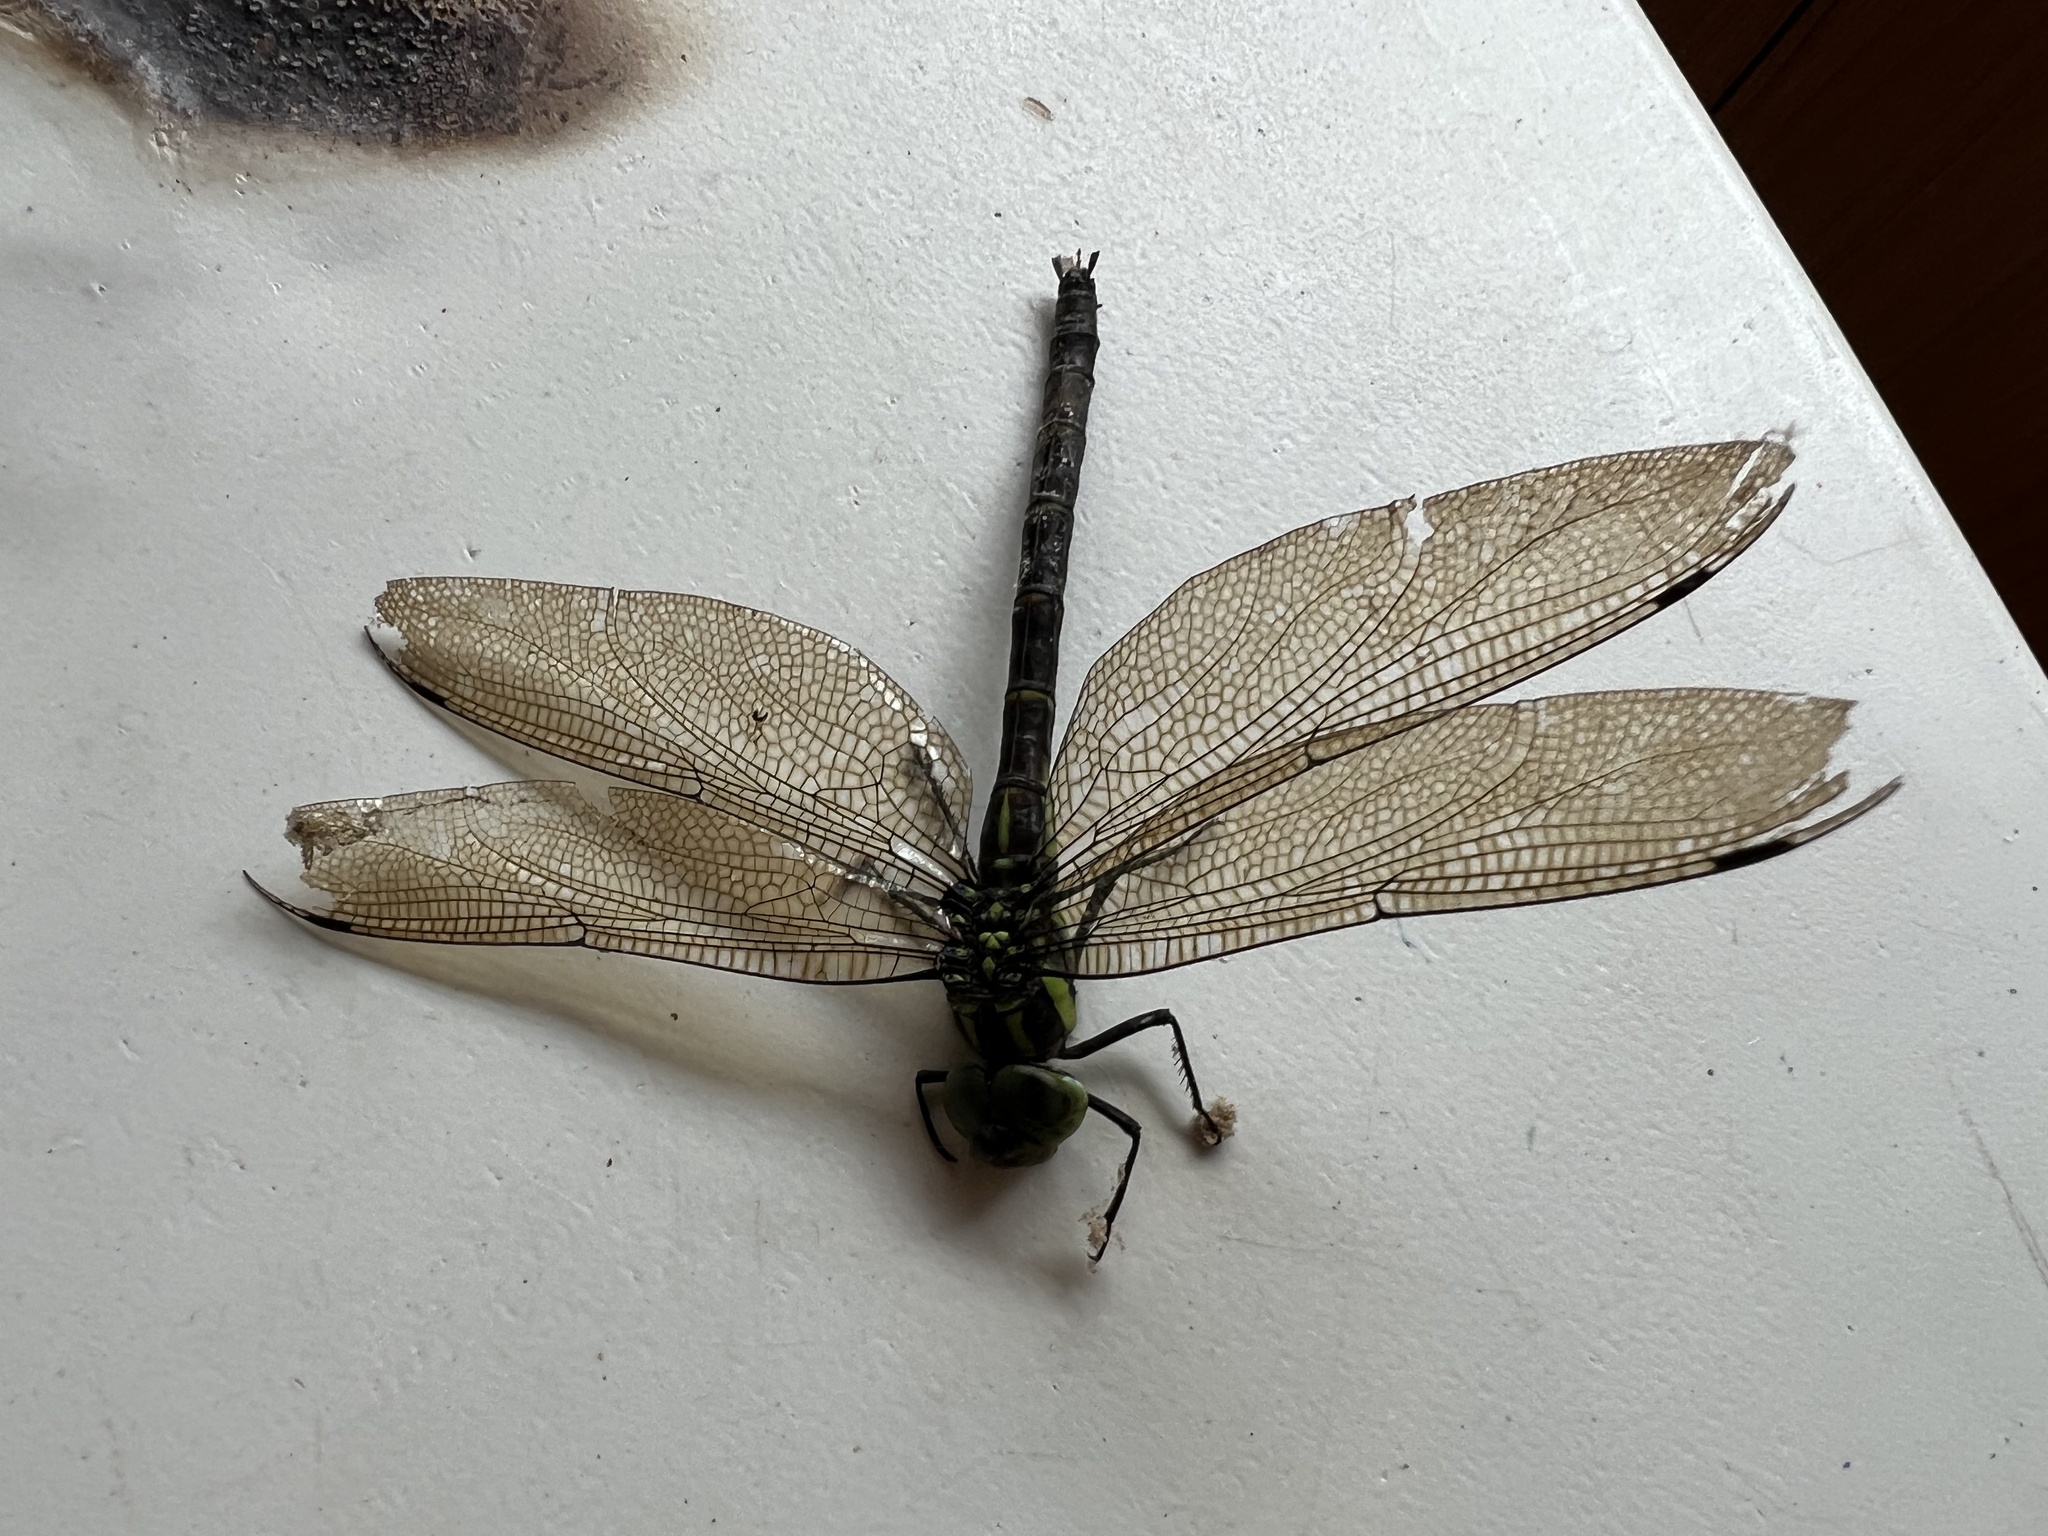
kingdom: Animalia
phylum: Arthropoda
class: Insecta
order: Odonata
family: Aeshnidae
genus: Indaeschna
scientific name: Indaeschna
